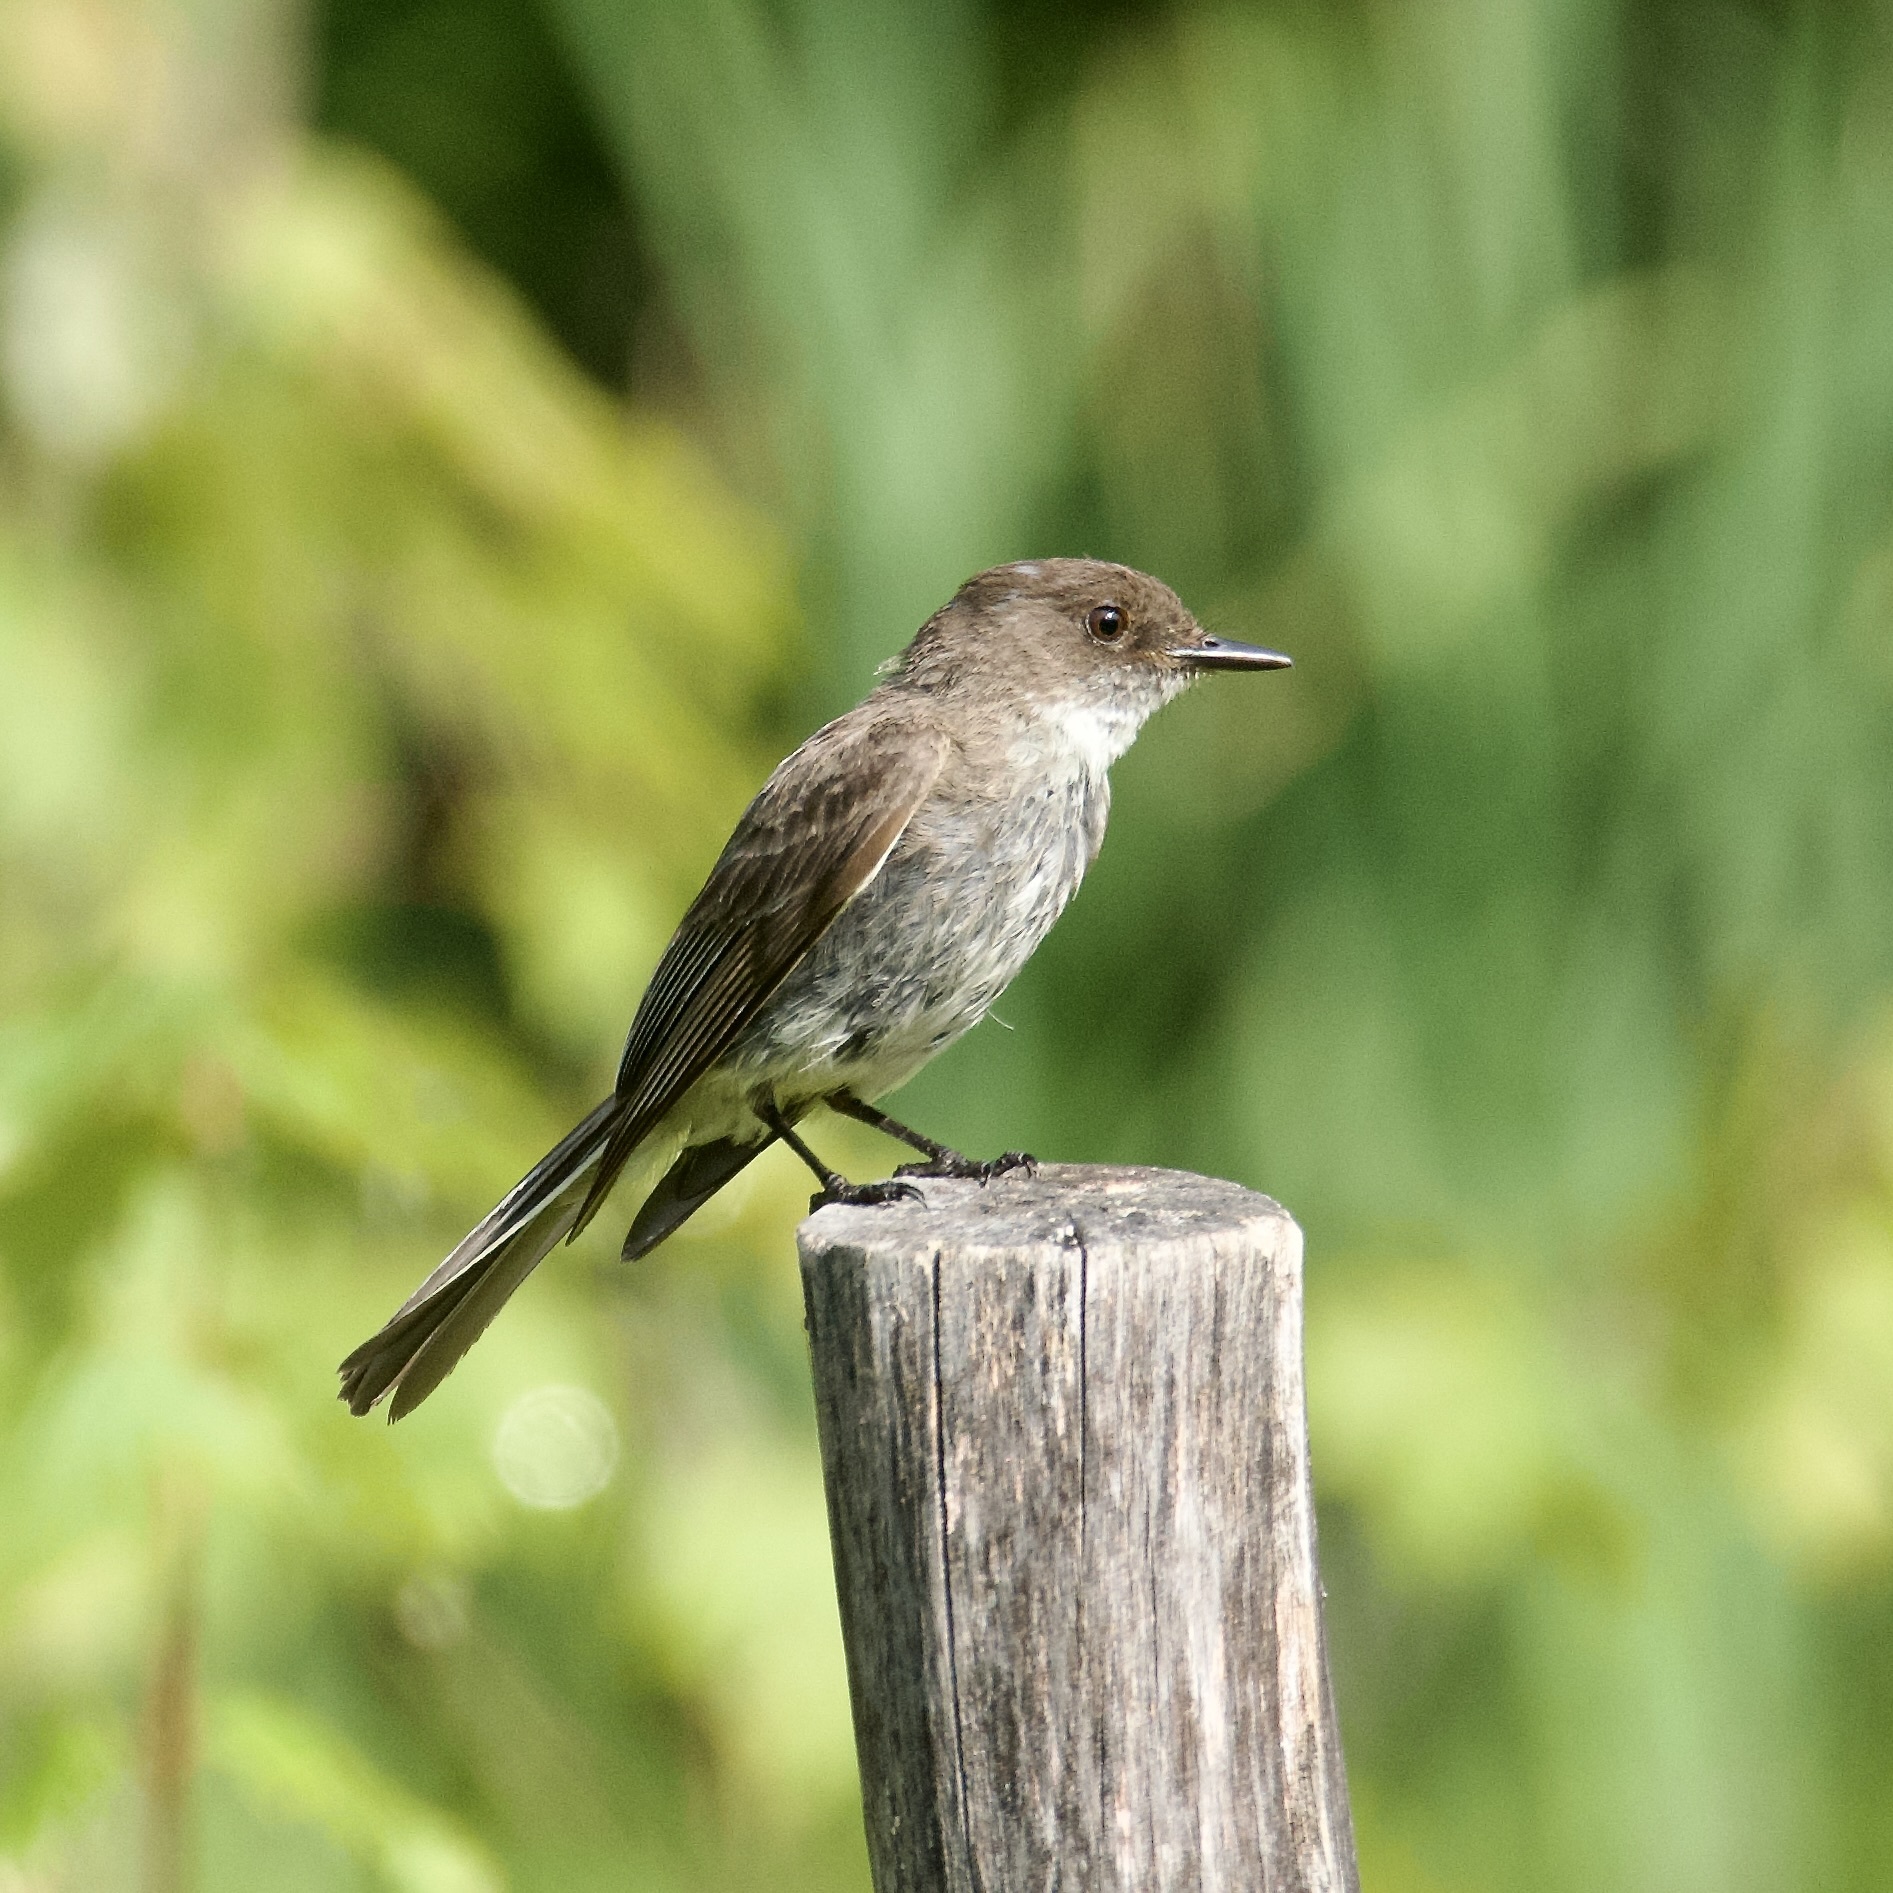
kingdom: Animalia
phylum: Chordata
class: Aves
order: Passeriformes
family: Tyrannidae
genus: Sayornis
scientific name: Sayornis phoebe
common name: Eastern phoebe
